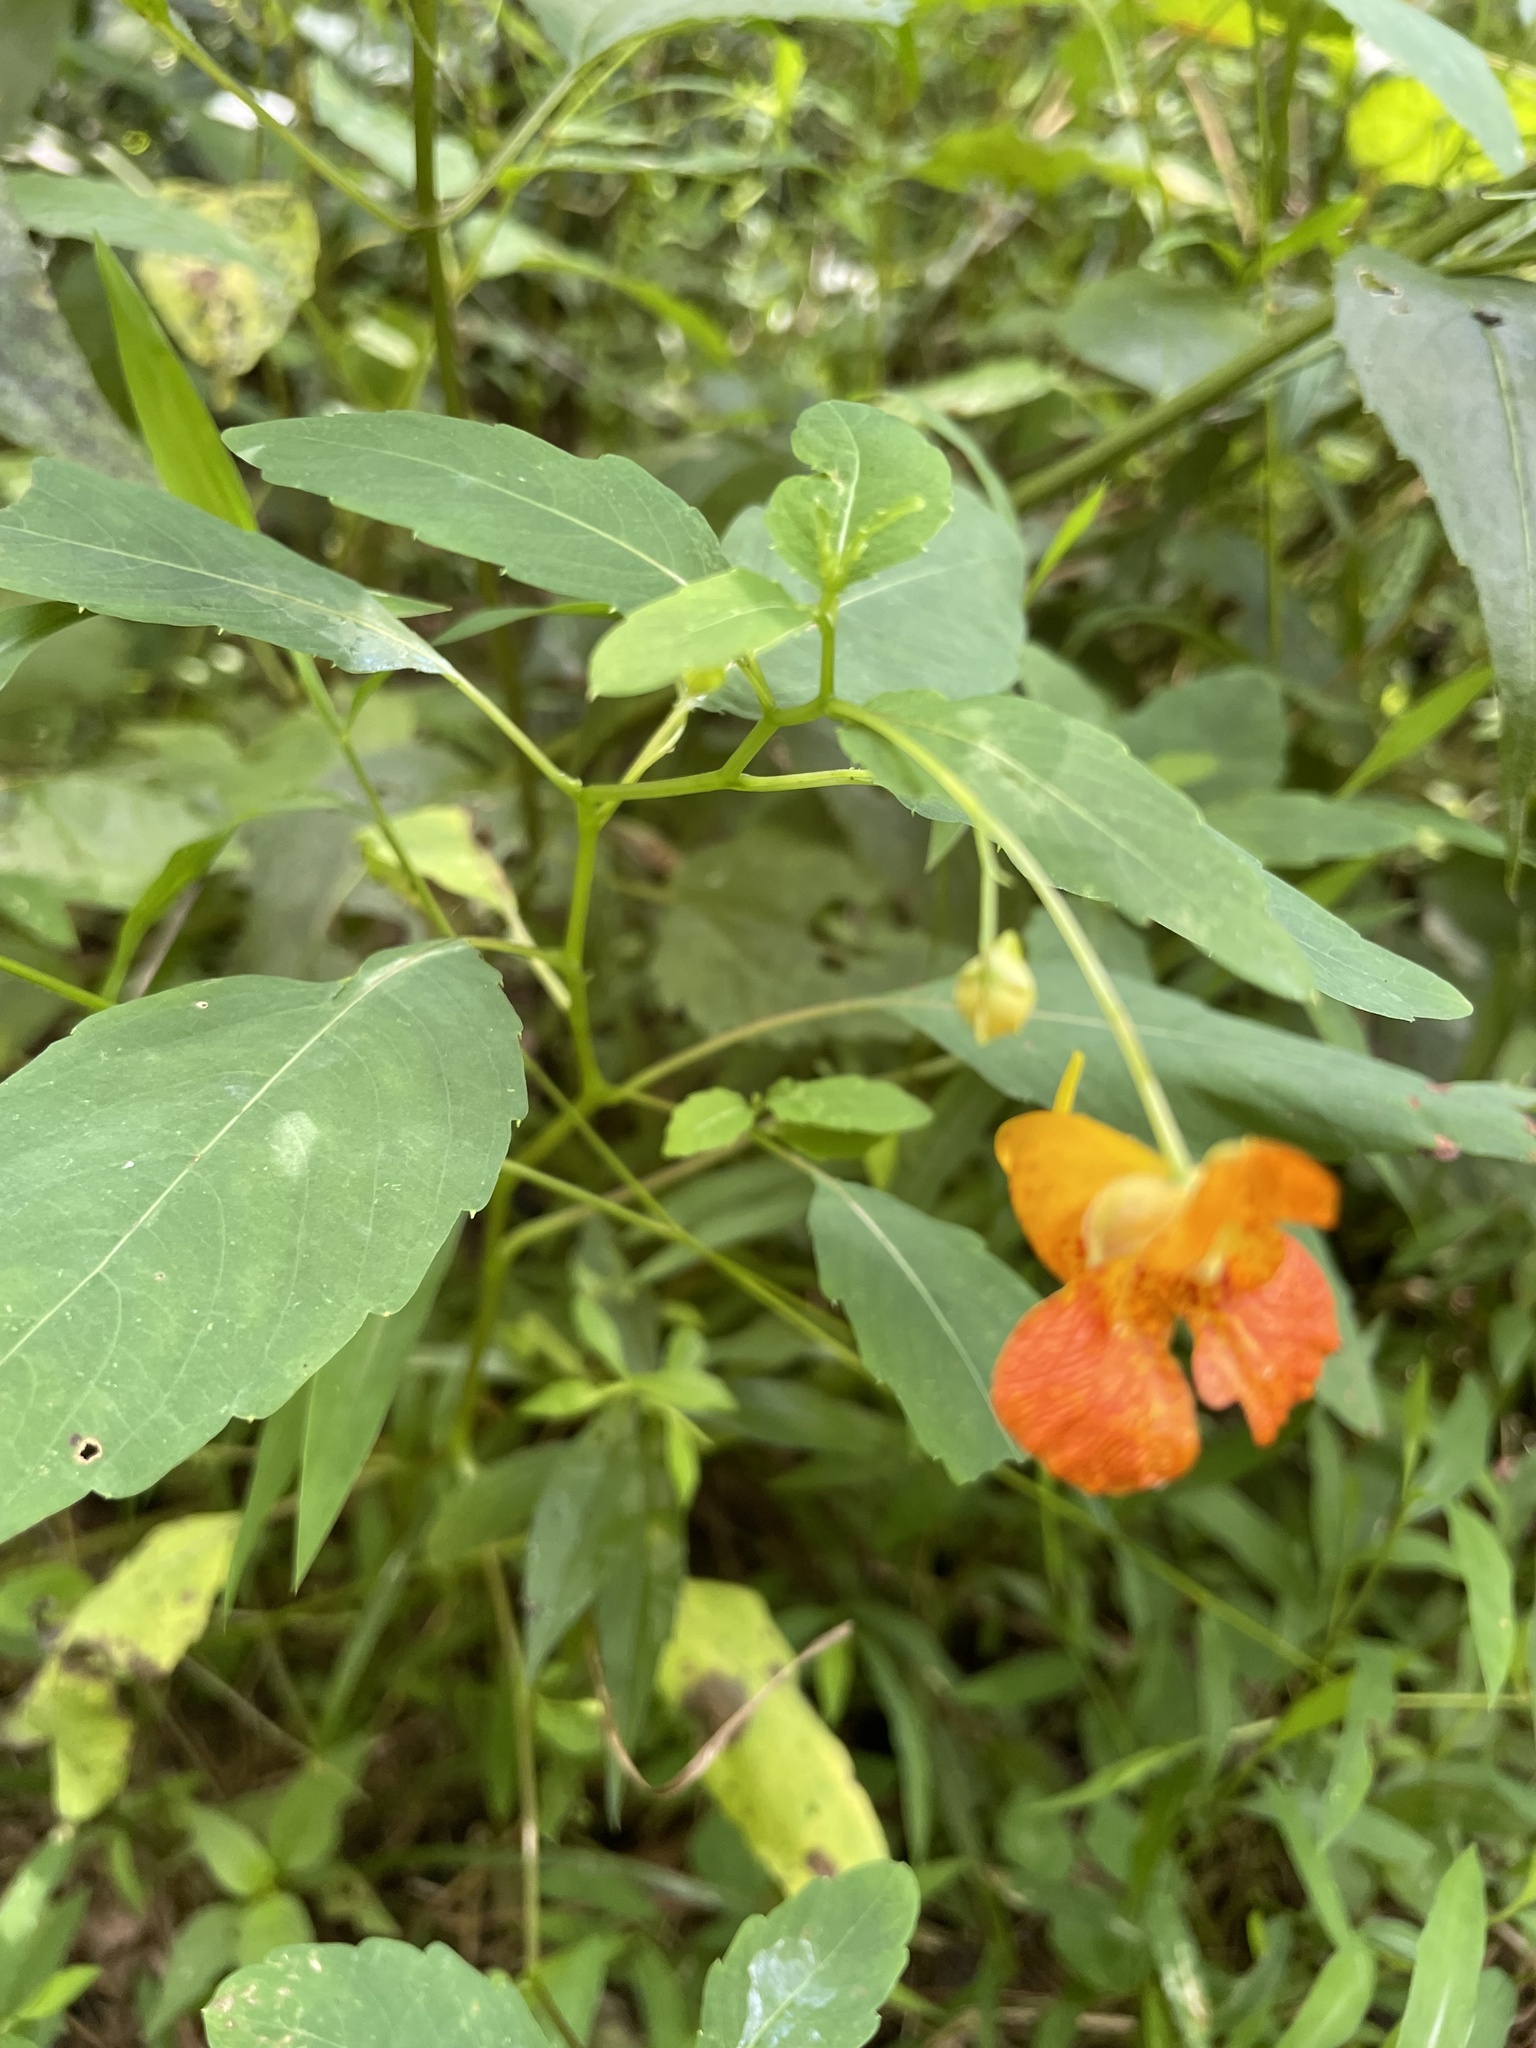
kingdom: Plantae
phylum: Tracheophyta
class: Magnoliopsida
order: Ericales
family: Balsaminaceae
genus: Impatiens
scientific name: Impatiens capensis
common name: Orange balsam
